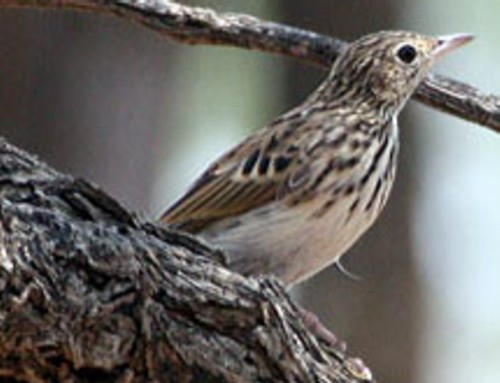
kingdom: Animalia
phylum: Chordata
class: Aves
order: Passeriformes
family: Motacillidae
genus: Anthus
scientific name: Anthus caffer
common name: Bushveld pipit
